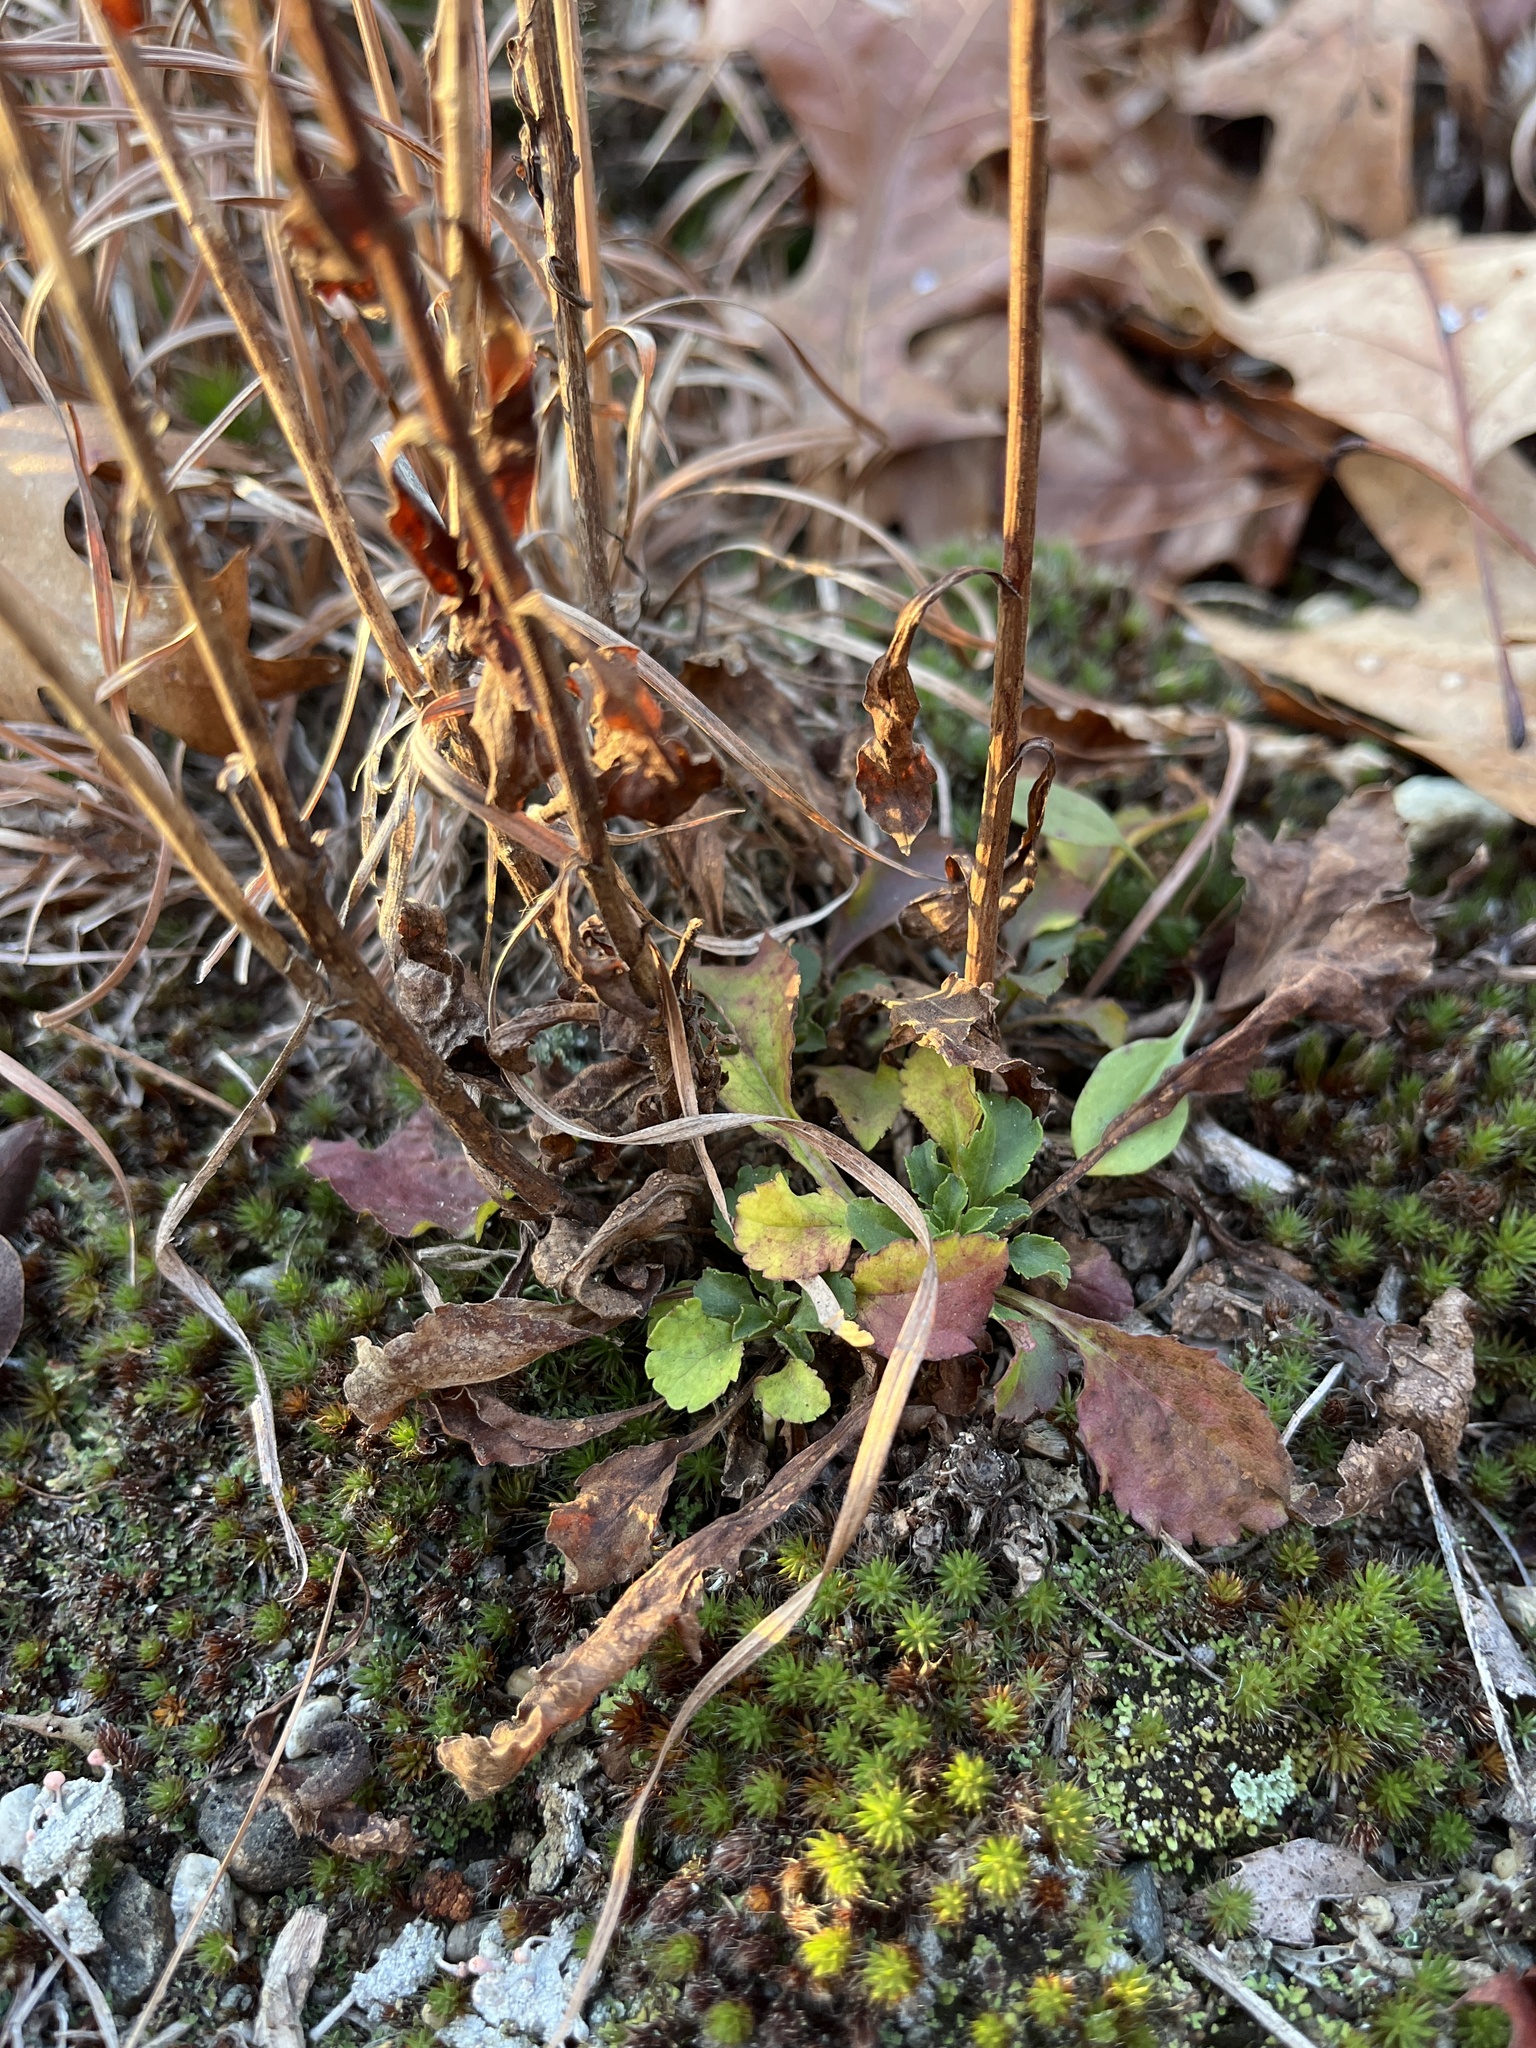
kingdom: Plantae
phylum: Tracheophyta
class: Magnoliopsida
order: Asterales
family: Asteraceae
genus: Solidago
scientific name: Solidago bicolor
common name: Silverrod
